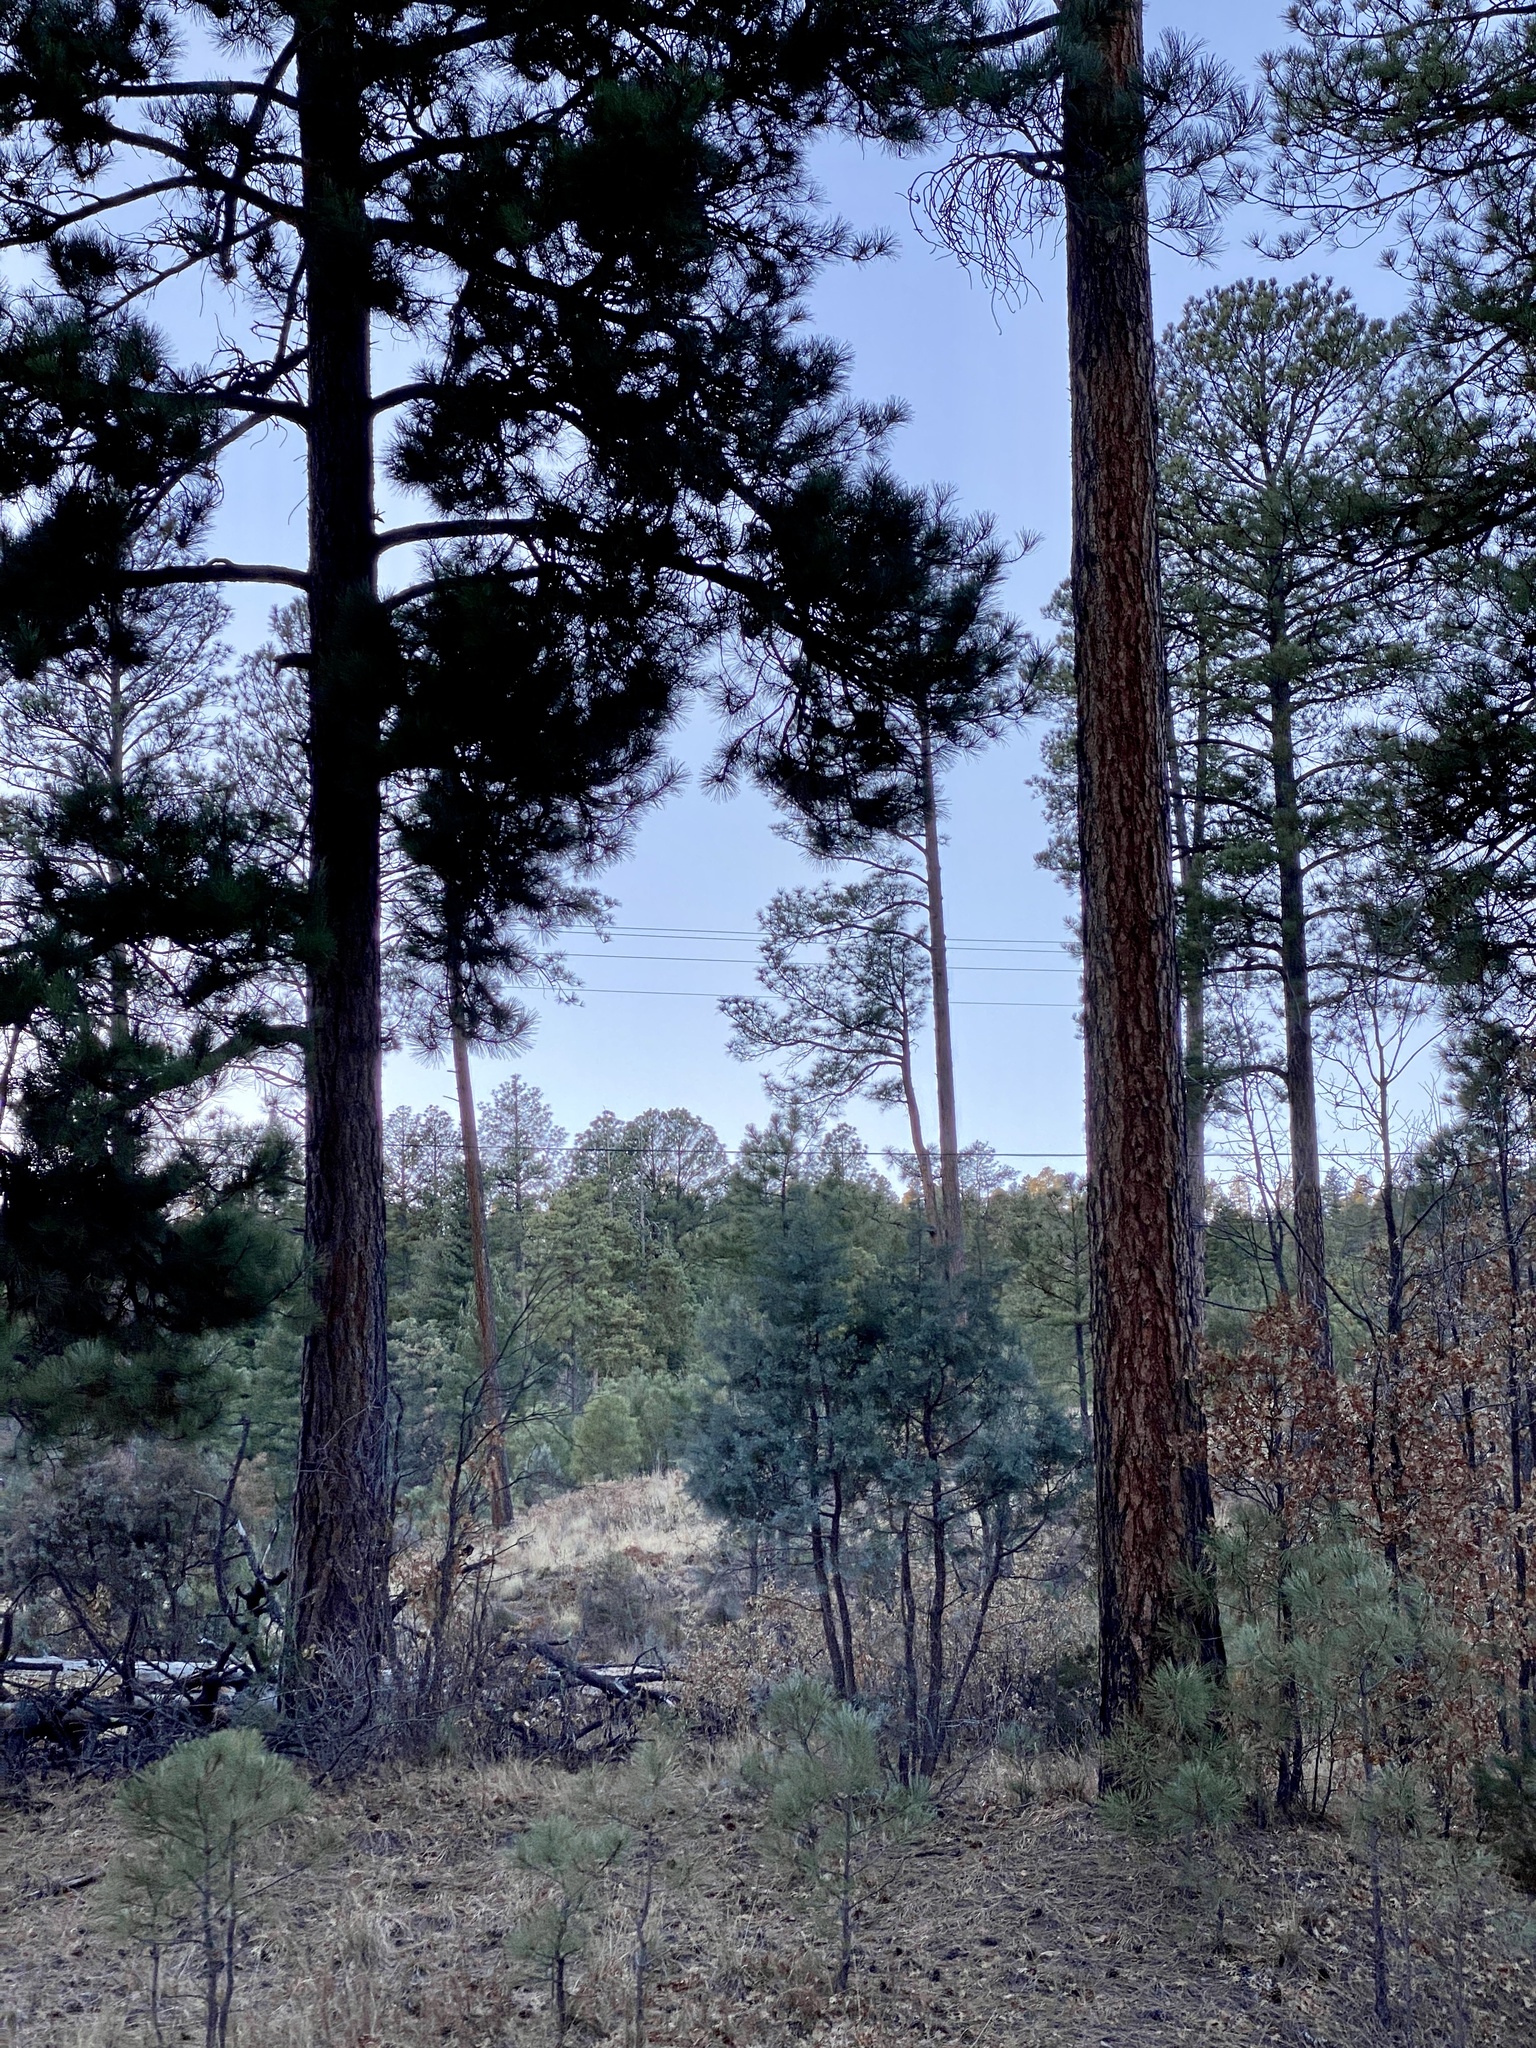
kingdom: Plantae
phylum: Tracheophyta
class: Pinopsida
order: Pinales
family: Pinaceae
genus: Pinus
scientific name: Pinus ponderosa
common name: Western yellow-pine
